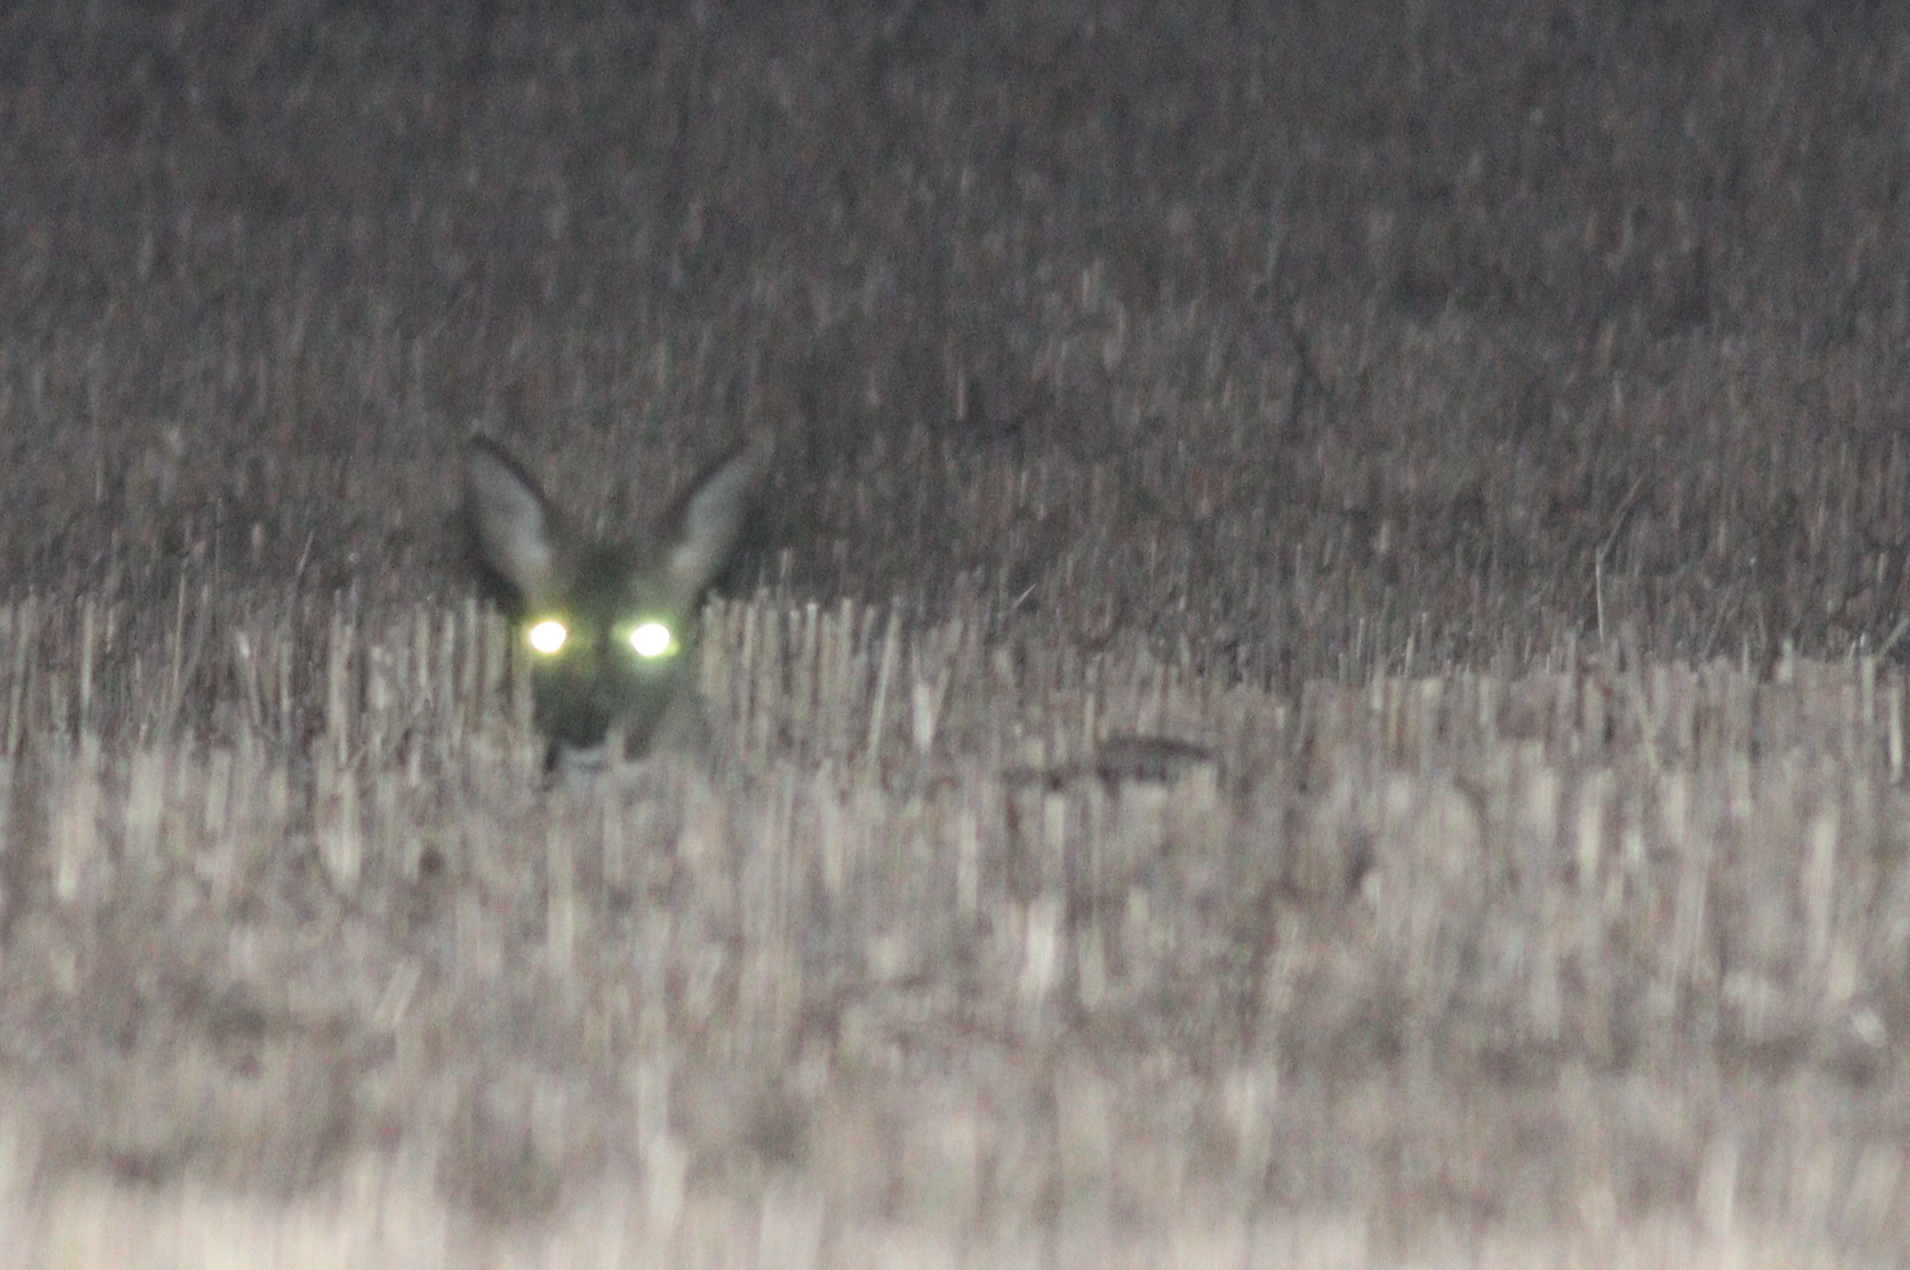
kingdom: Animalia
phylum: Chordata
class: Mammalia
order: Artiodactyla
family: Cervidae
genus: Capreolus
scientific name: Capreolus capreolus
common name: Western roe deer
